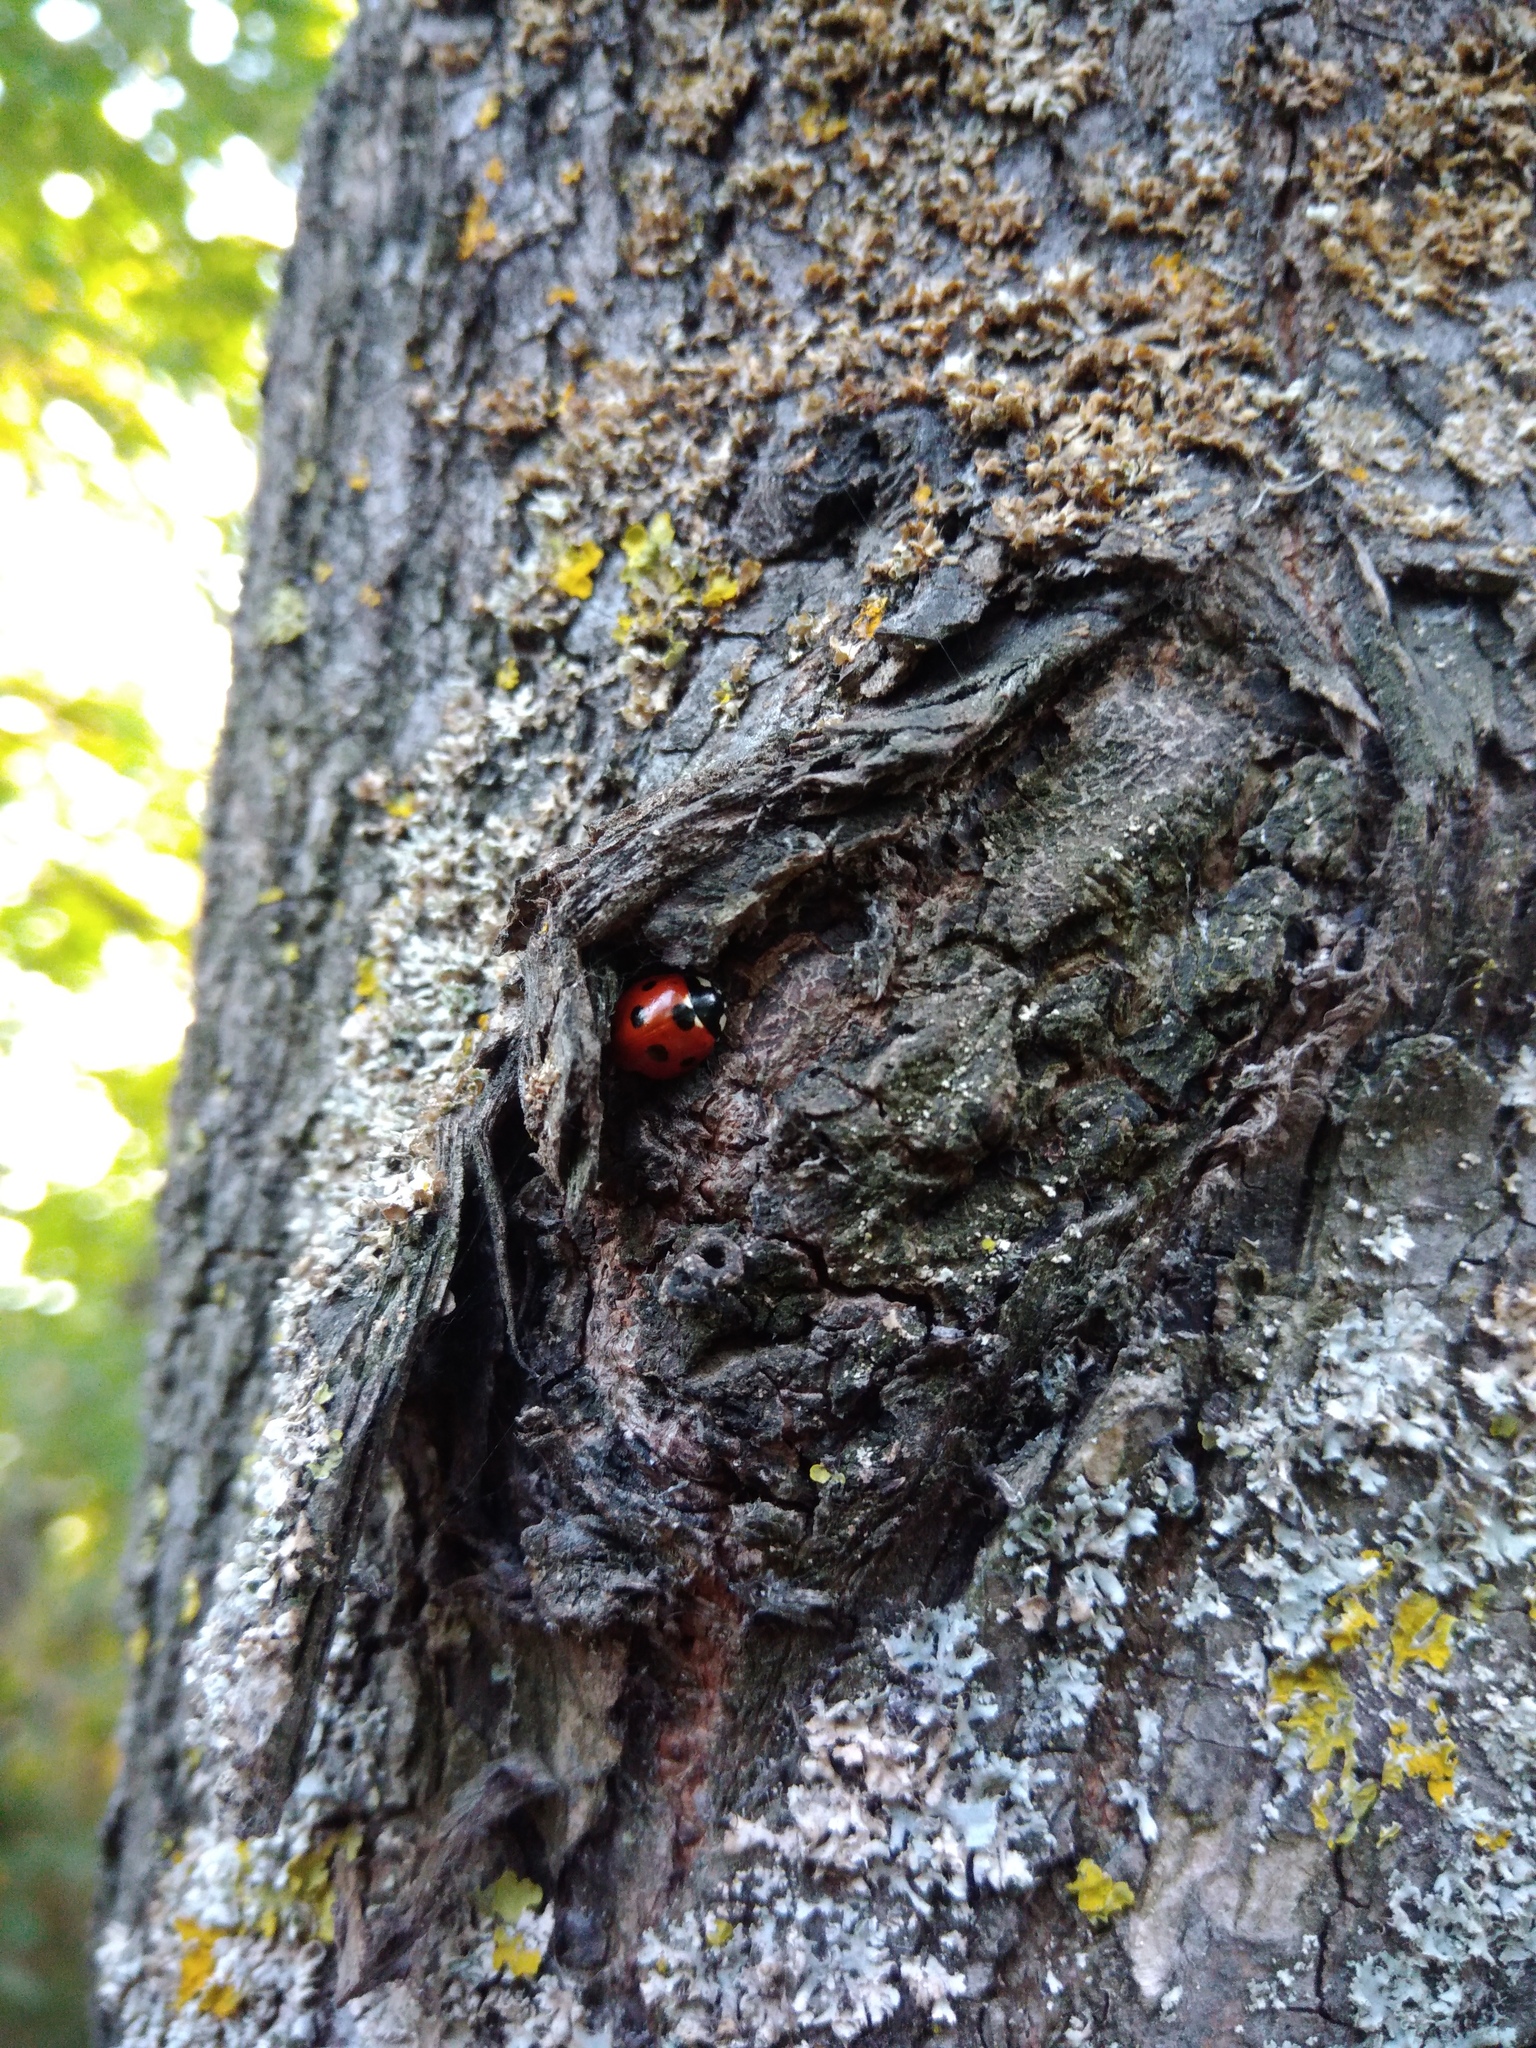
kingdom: Animalia
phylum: Arthropoda
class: Insecta
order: Coleoptera
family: Coccinellidae
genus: Coccinella
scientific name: Coccinella septempunctata
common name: Sevenspotted lady beetle
